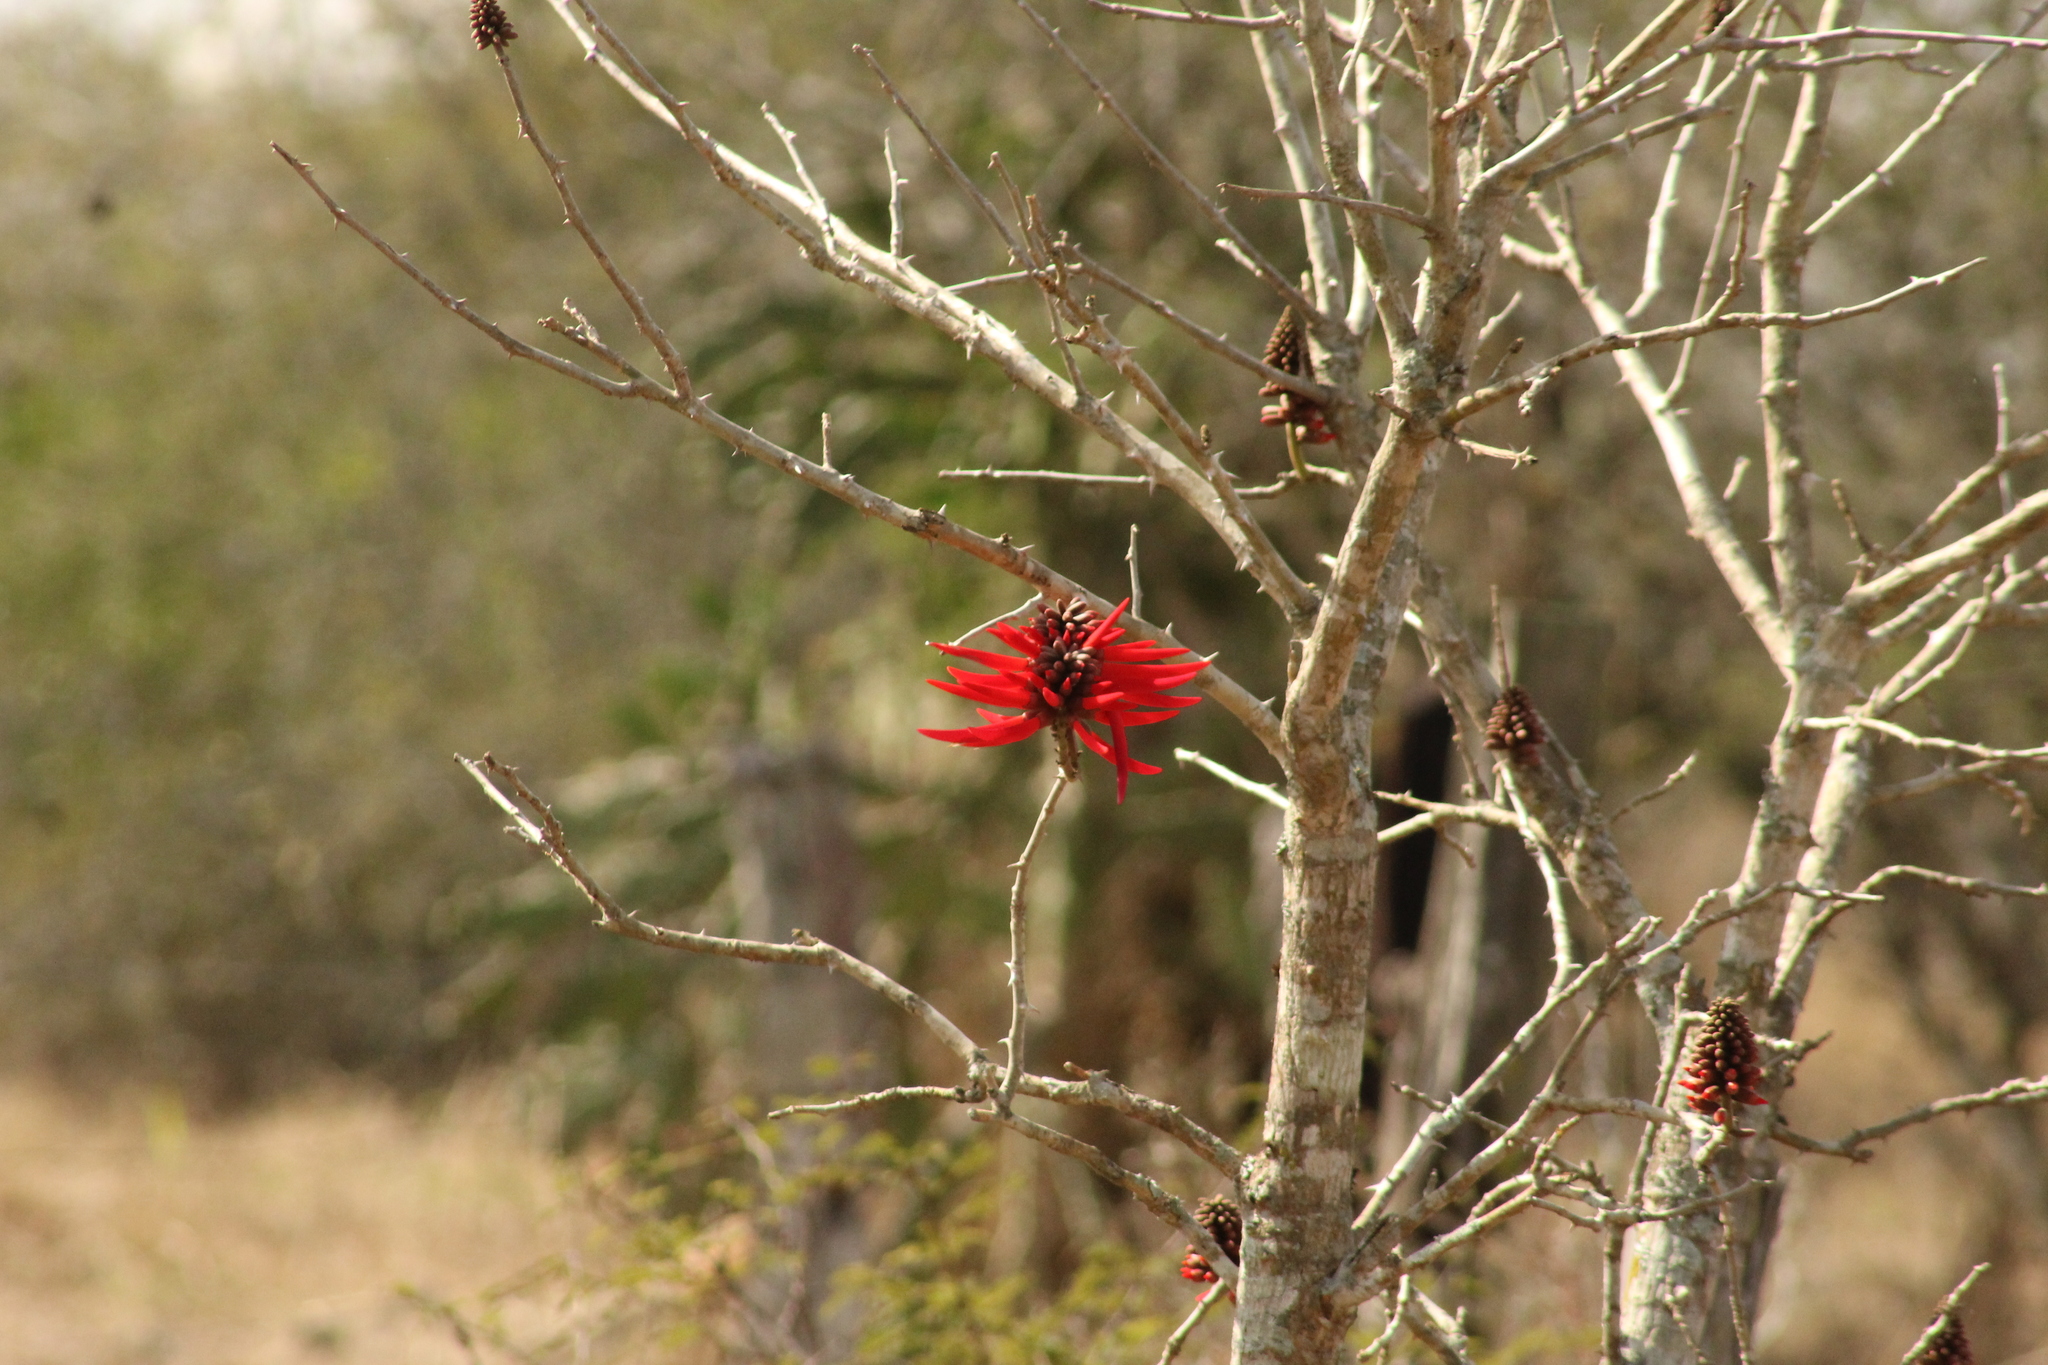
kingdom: Plantae
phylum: Tracheophyta
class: Magnoliopsida
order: Fabales
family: Fabaceae
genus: Erythrina
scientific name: Erythrina americana
